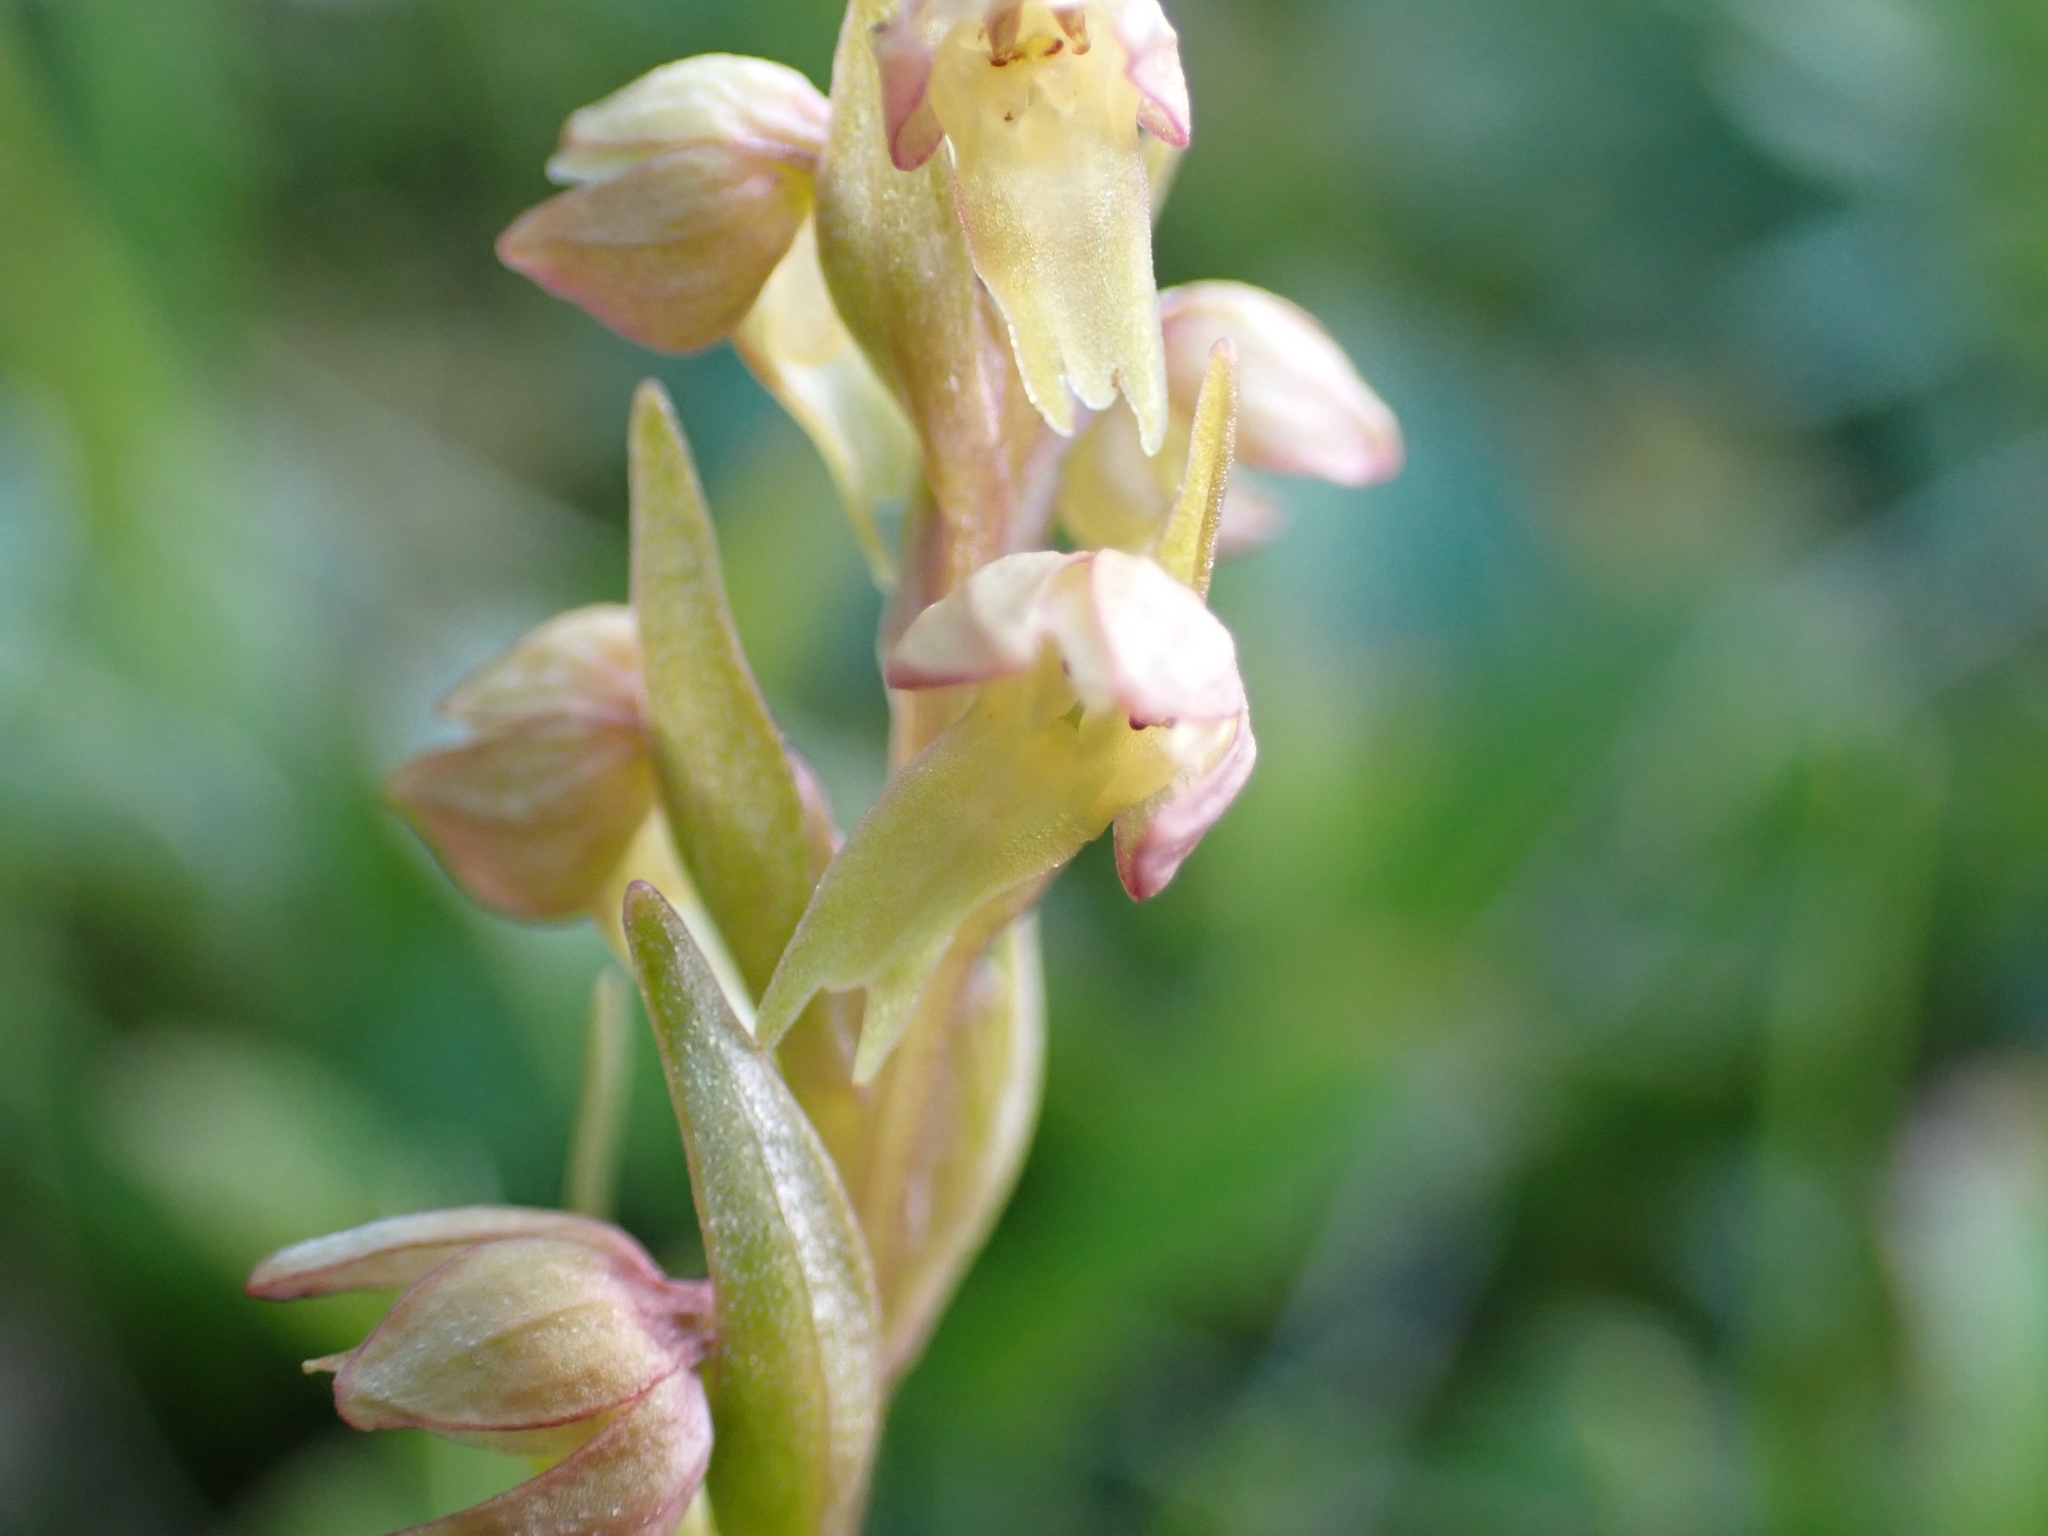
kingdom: Plantae
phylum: Tracheophyta
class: Liliopsida
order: Asparagales
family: Orchidaceae
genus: Dactylorhiza
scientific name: Dactylorhiza viridis
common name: Longbract frog orchid
